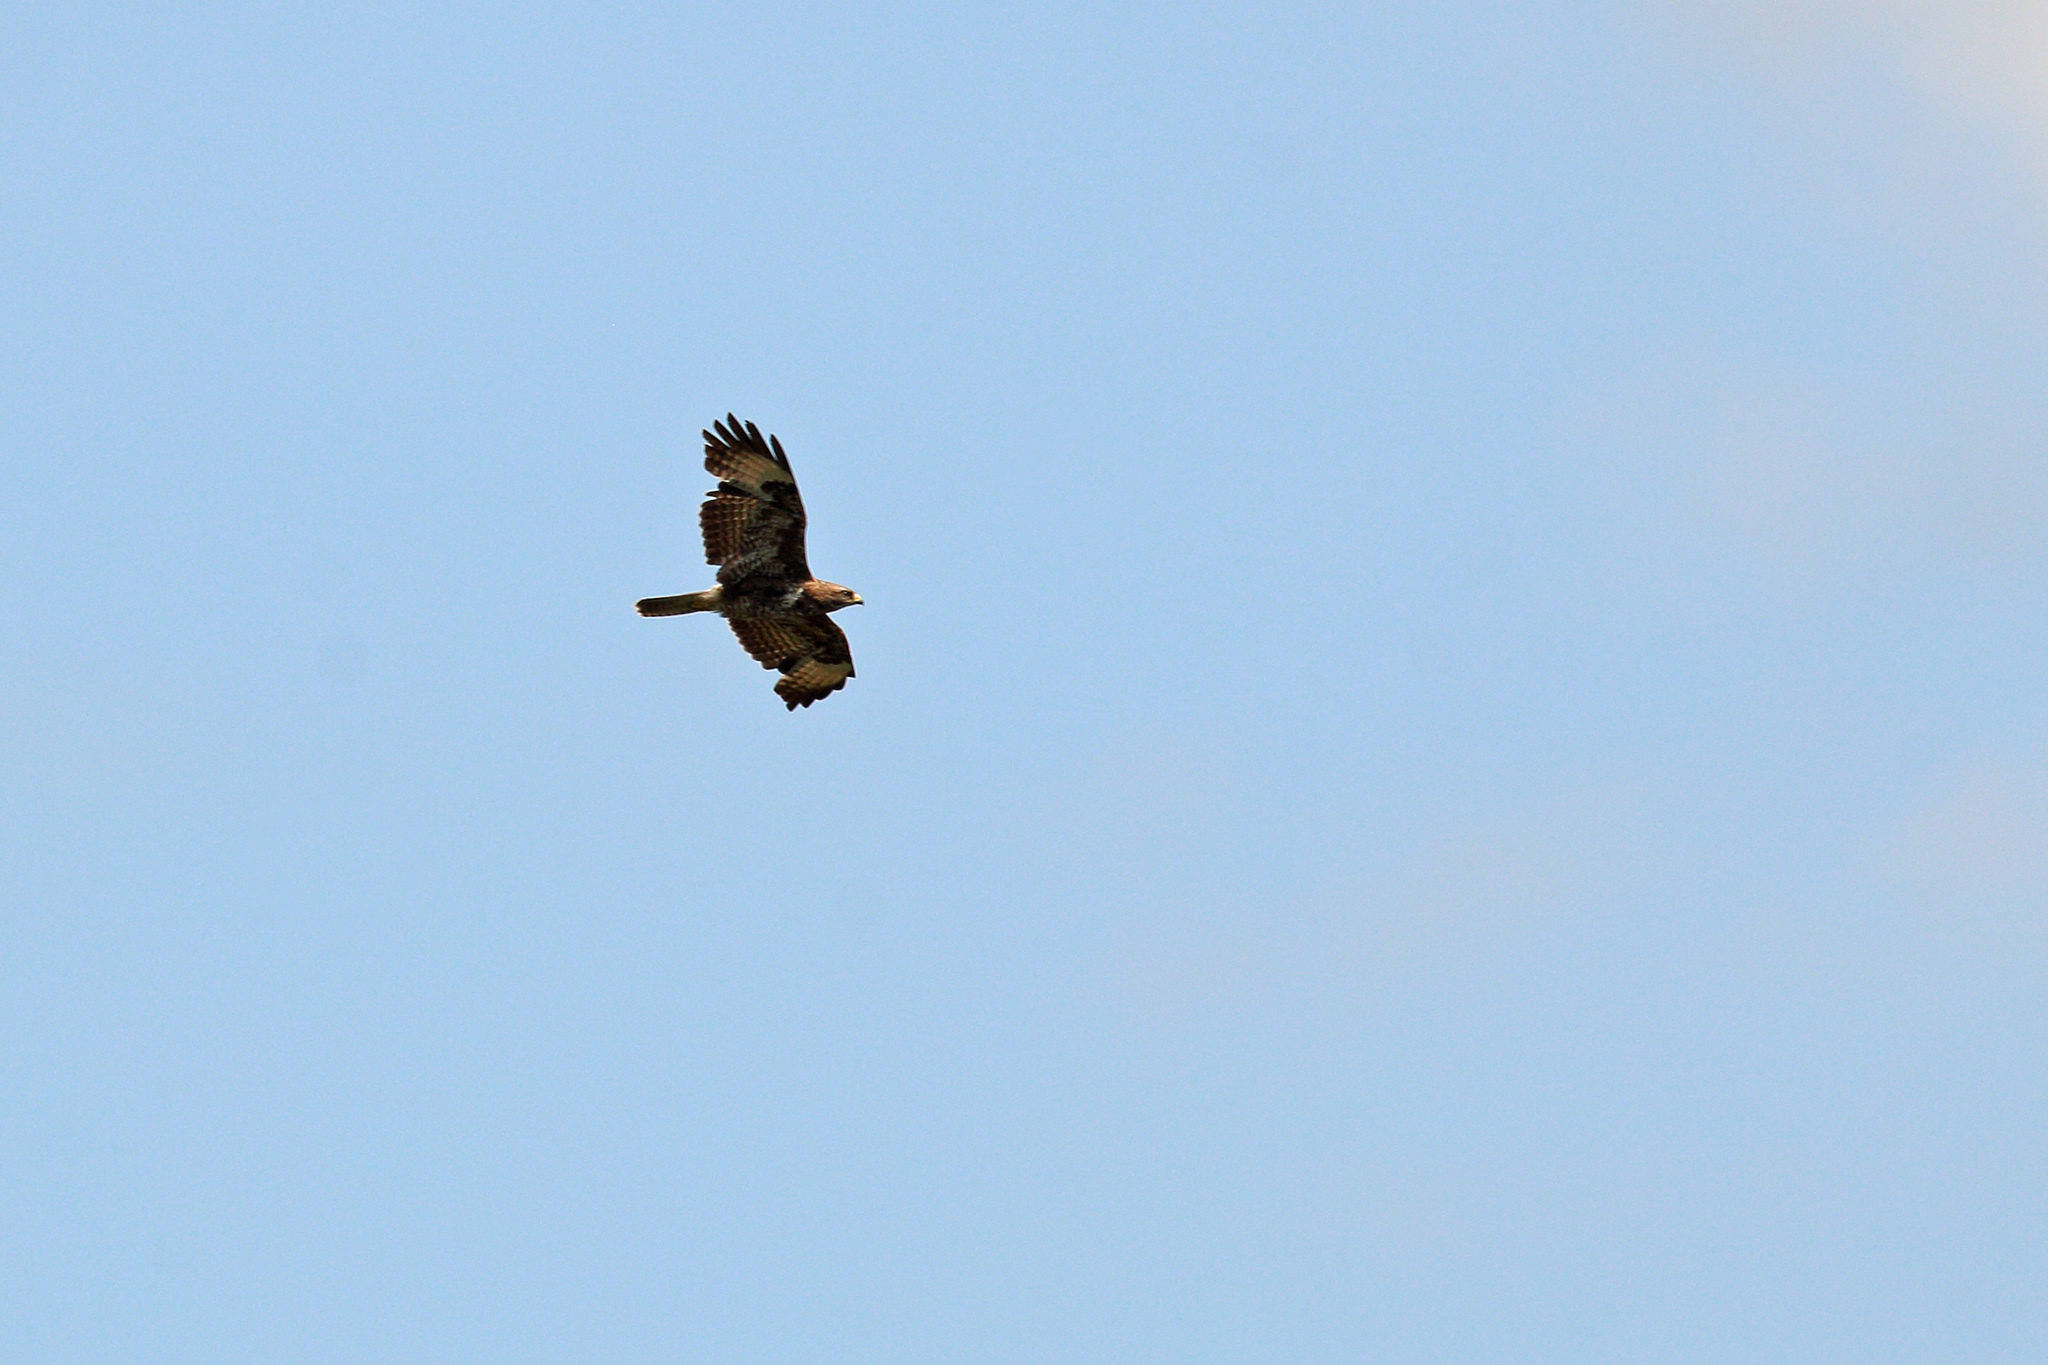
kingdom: Animalia
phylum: Chordata
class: Aves
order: Accipitriformes
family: Accipitridae
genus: Buteo
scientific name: Buteo buteo
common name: Common buzzard
